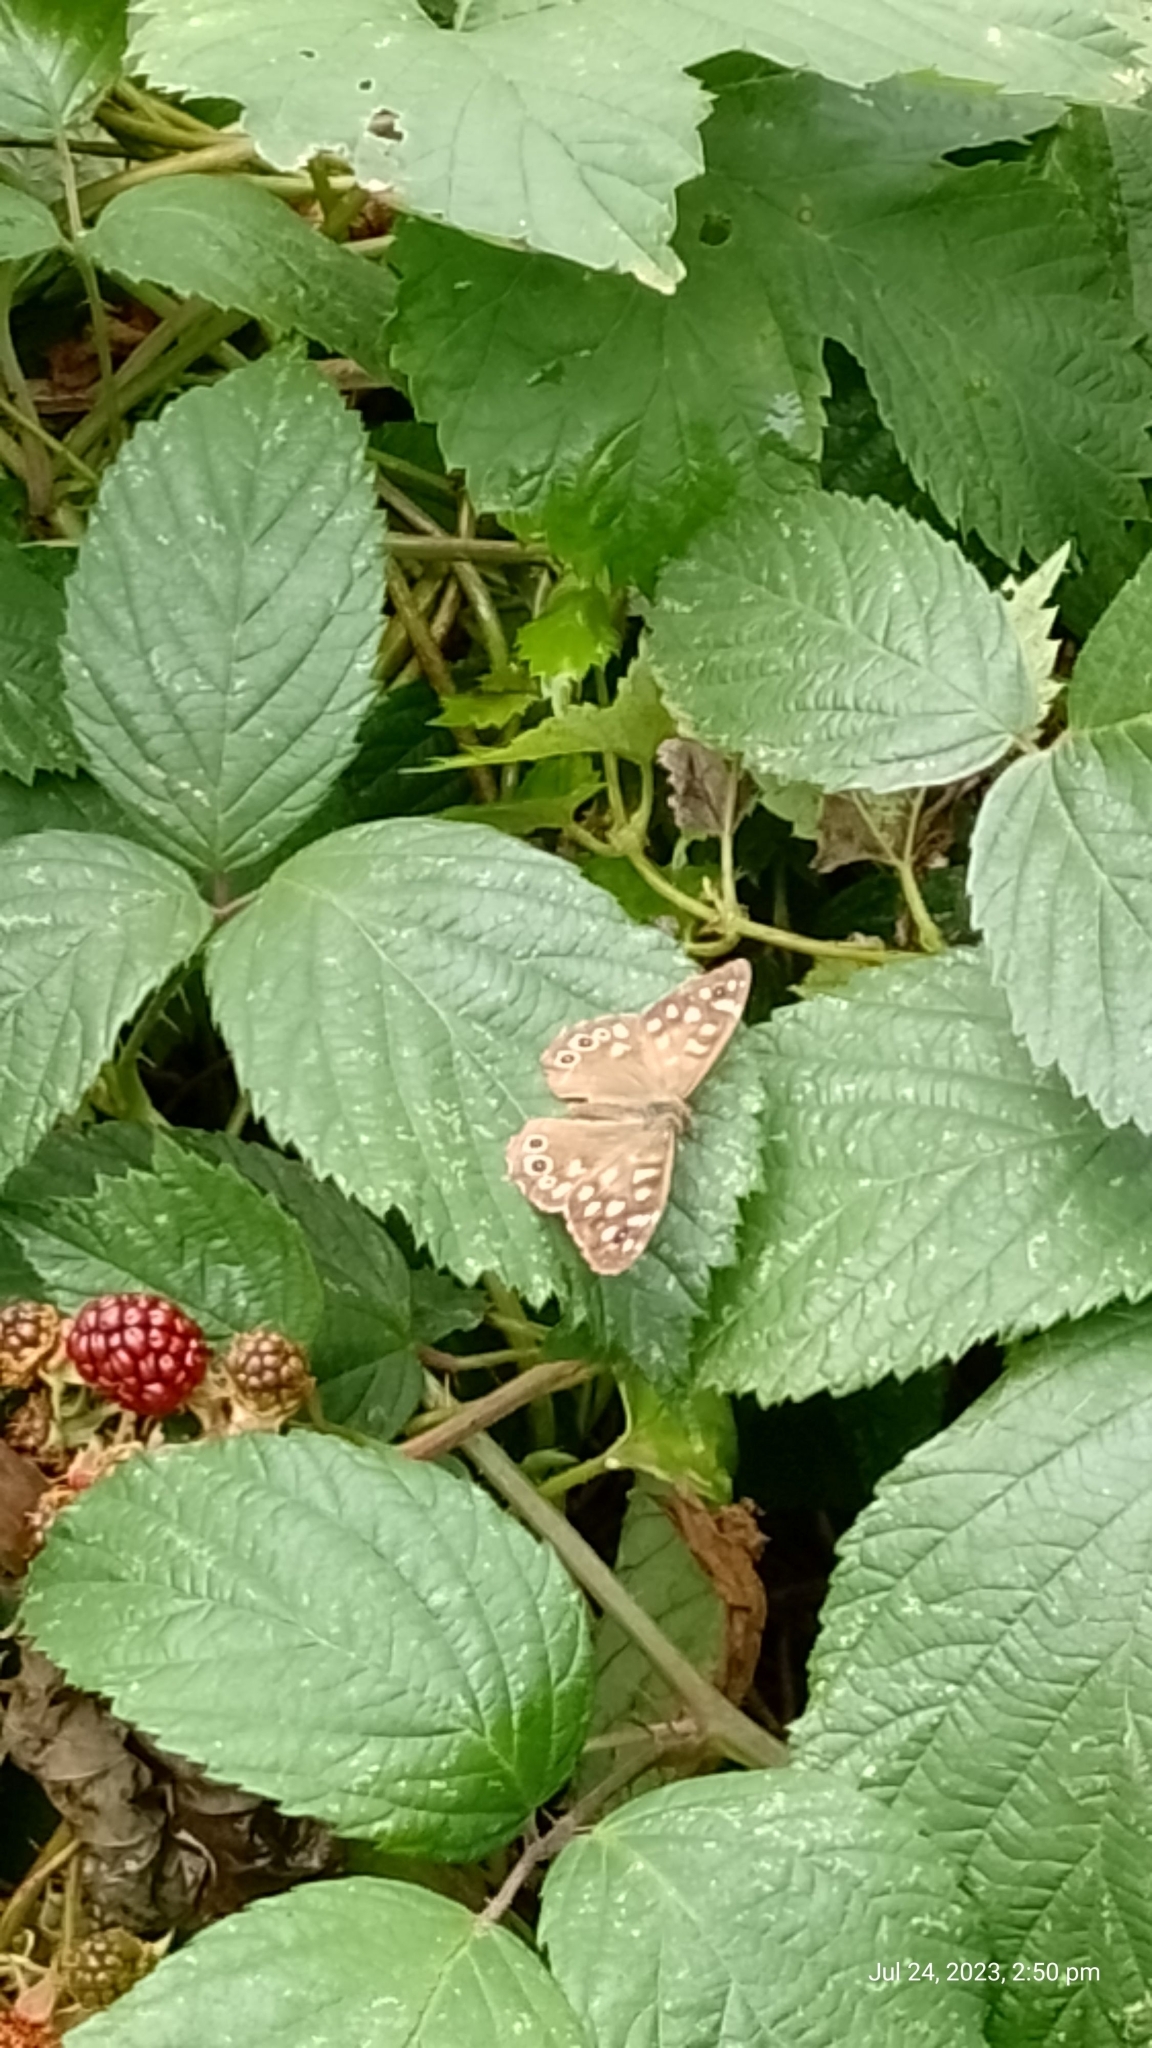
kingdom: Animalia
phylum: Arthropoda
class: Insecta
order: Lepidoptera
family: Nymphalidae
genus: Pararge
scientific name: Pararge aegeria
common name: Speckled wood
